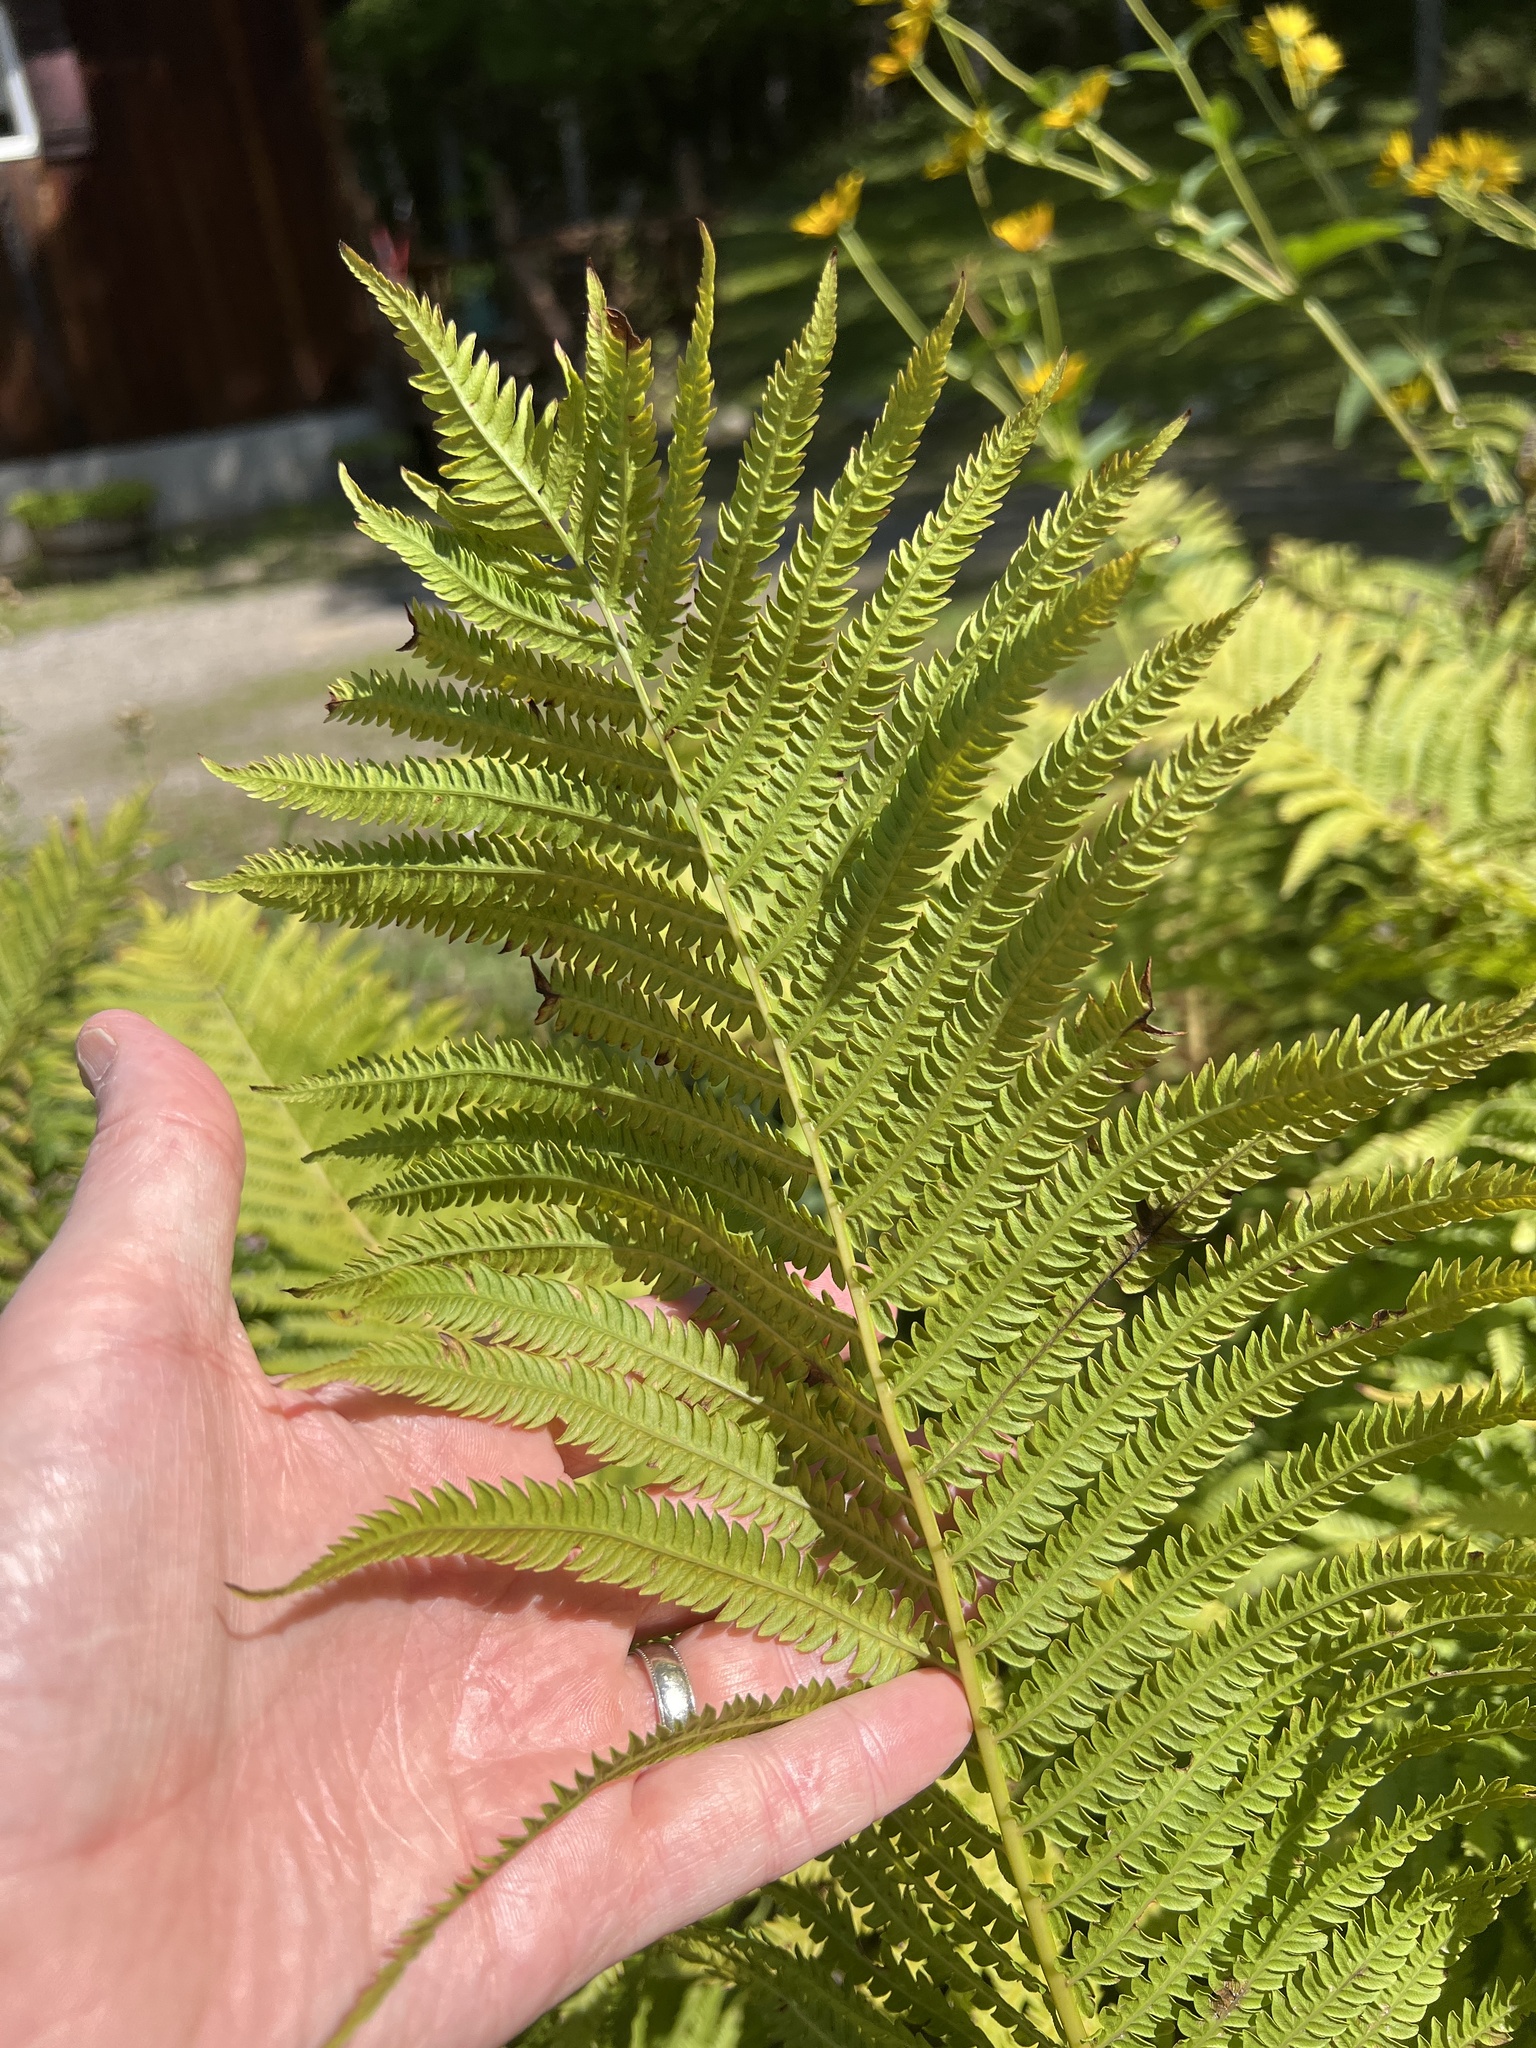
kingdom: Plantae
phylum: Tracheophyta
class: Polypodiopsida
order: Polypodiales
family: Onocleaceae
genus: Matteuccia
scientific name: Matteuccia struthiopteris
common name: Ostrich fern
